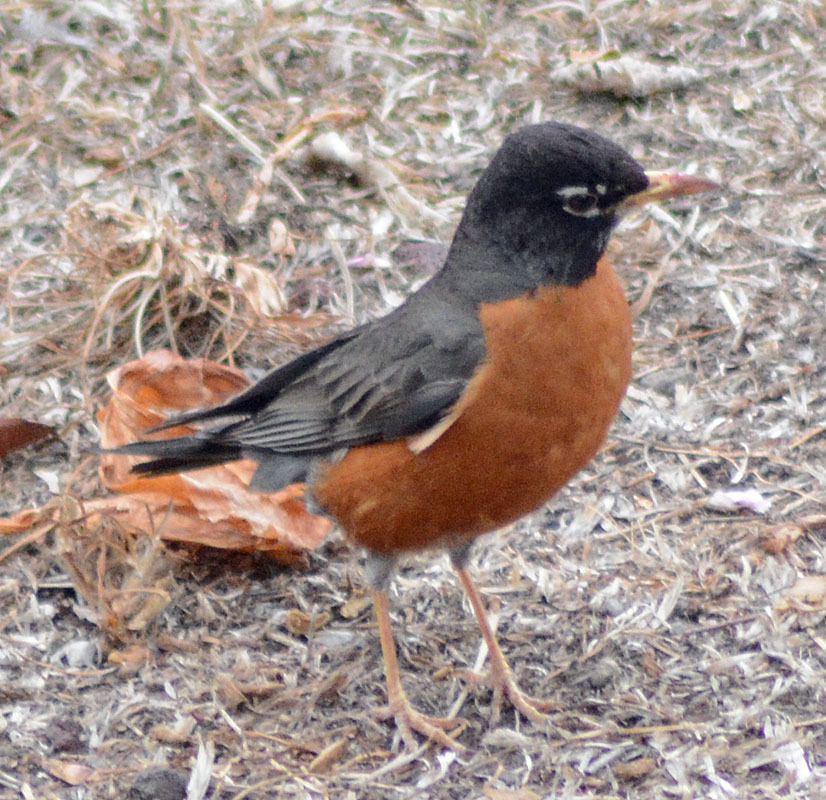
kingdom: Animalia
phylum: Chordata
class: Aves
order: Passeriformes
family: Turdidae
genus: Turdus
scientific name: Turdus migratorius
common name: American robin
